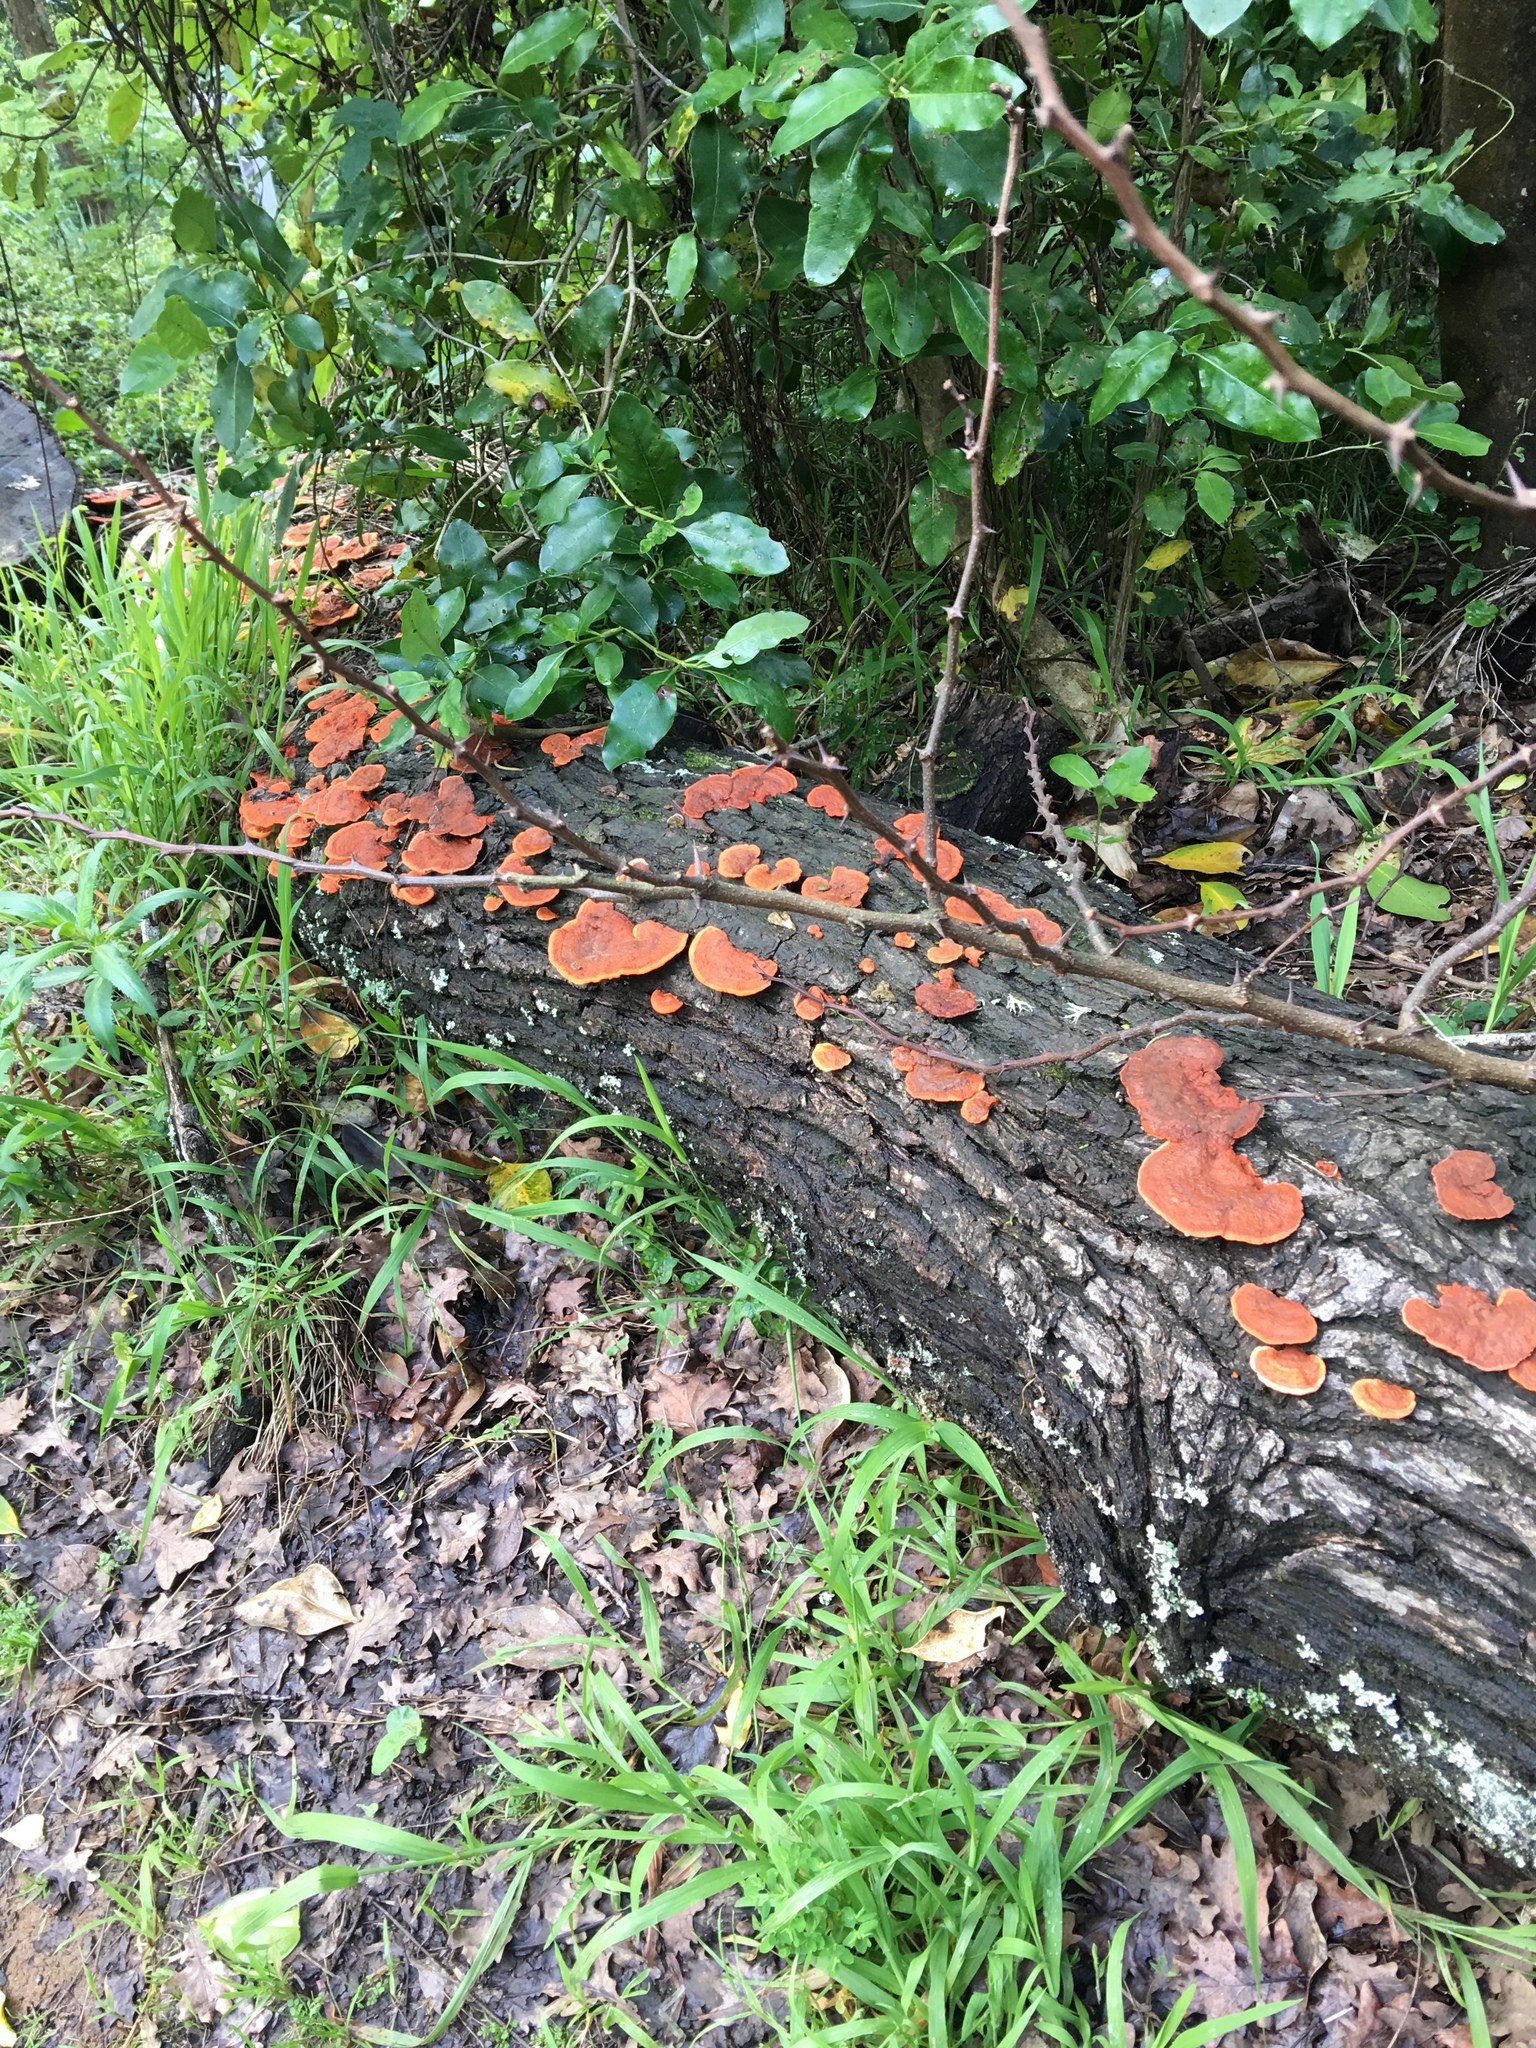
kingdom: Fungi
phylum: Basidiomycota
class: Agaricomycetes
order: Polyporales
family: Polyporaceae
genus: Trametes
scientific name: Trametes coccinea
